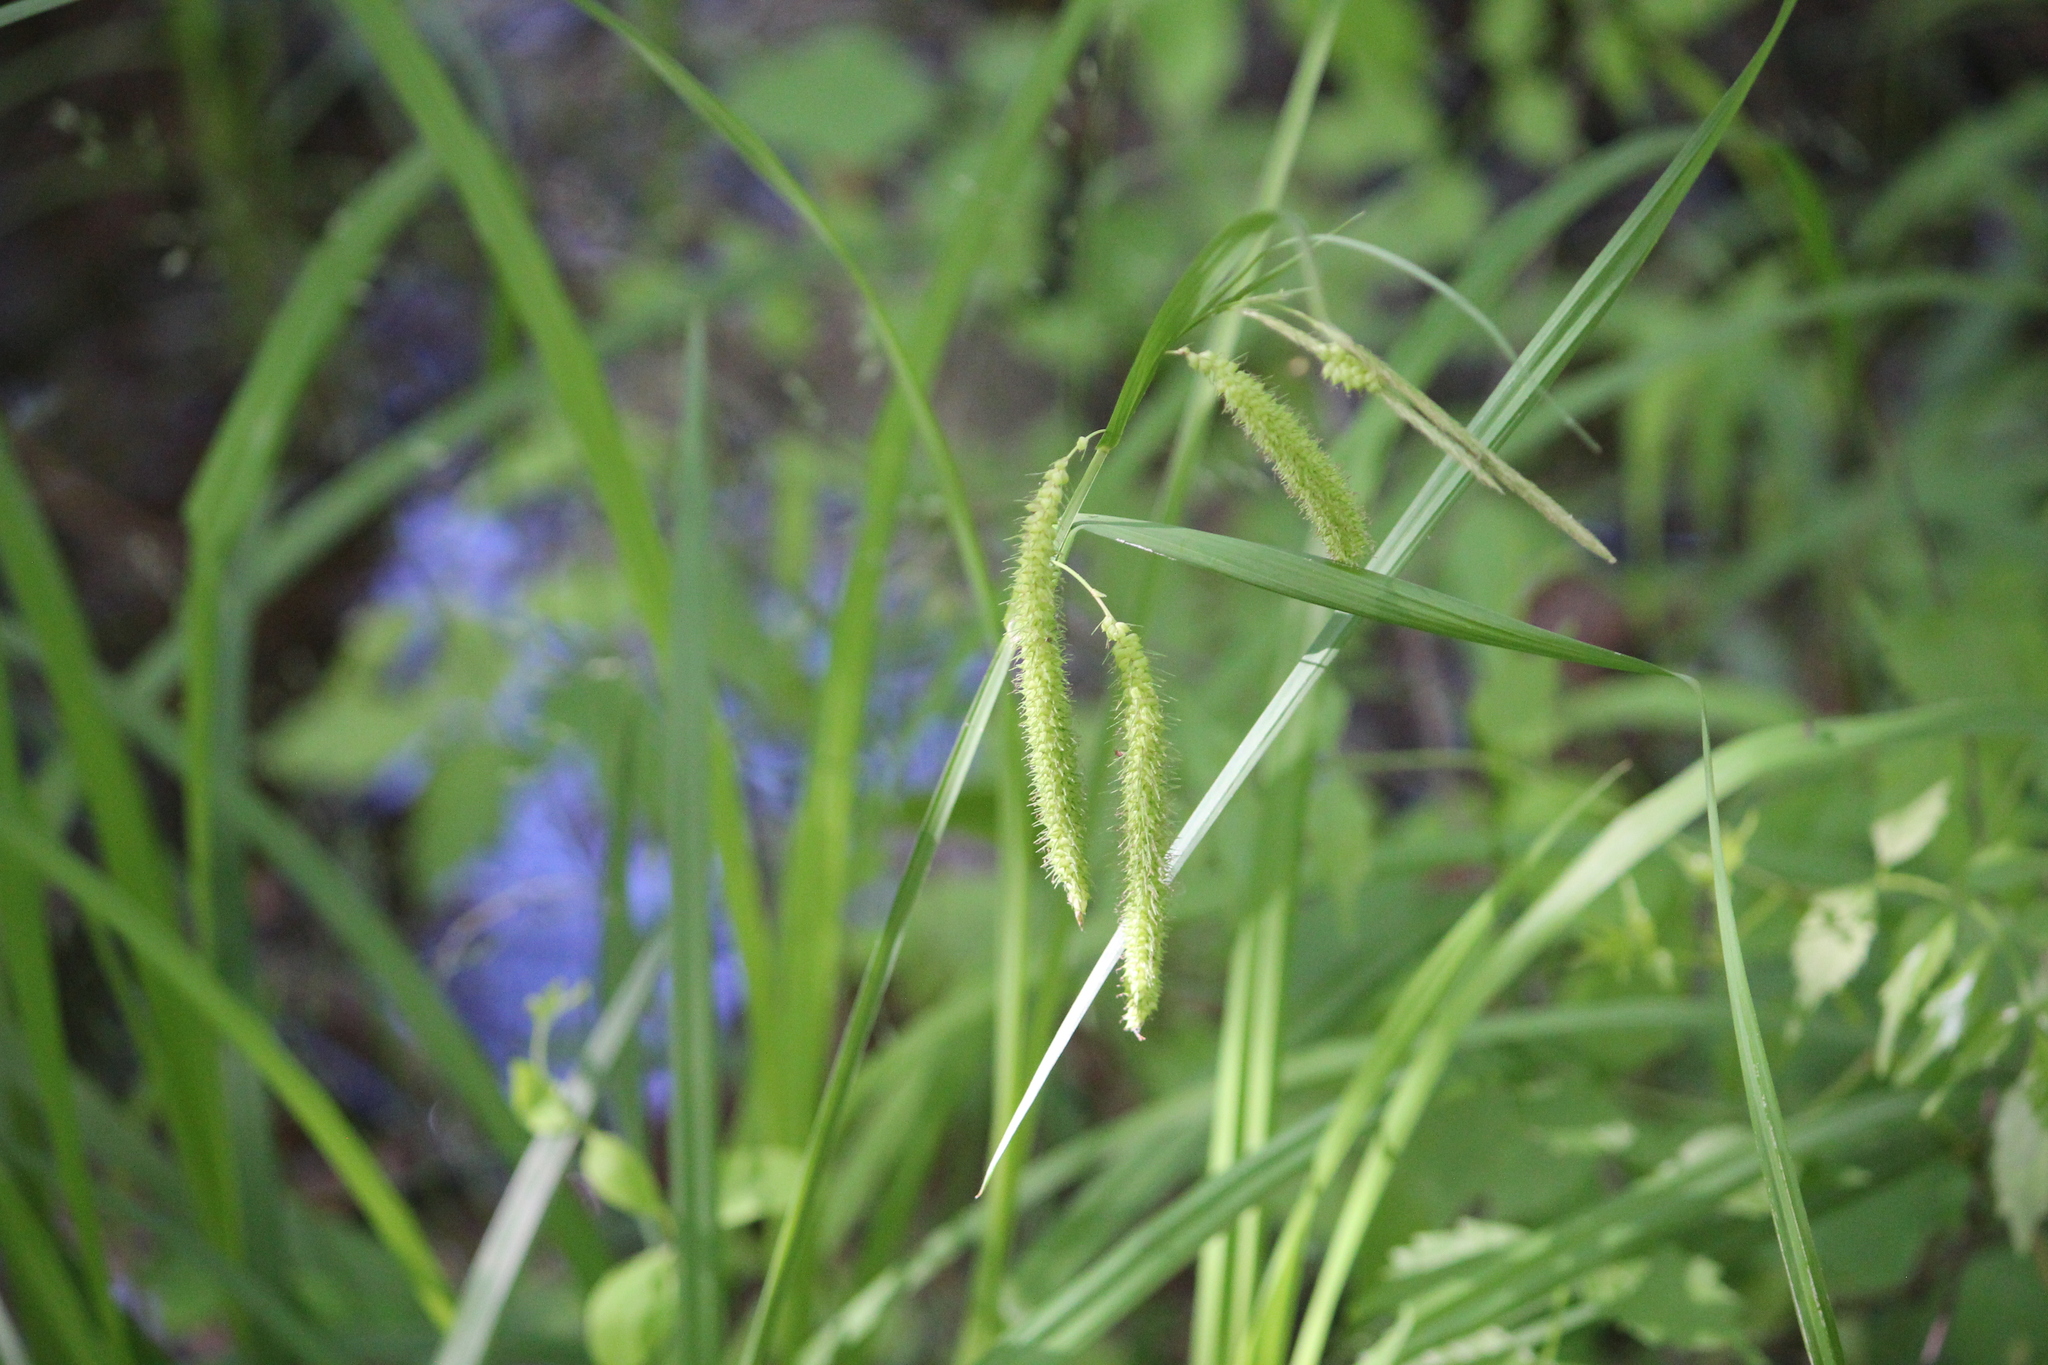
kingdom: Plantae
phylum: Tracheophyta
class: Liliopsida
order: Poales
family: Cyperaceae
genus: Carex
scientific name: Carex crinita
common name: Fringed sedge
